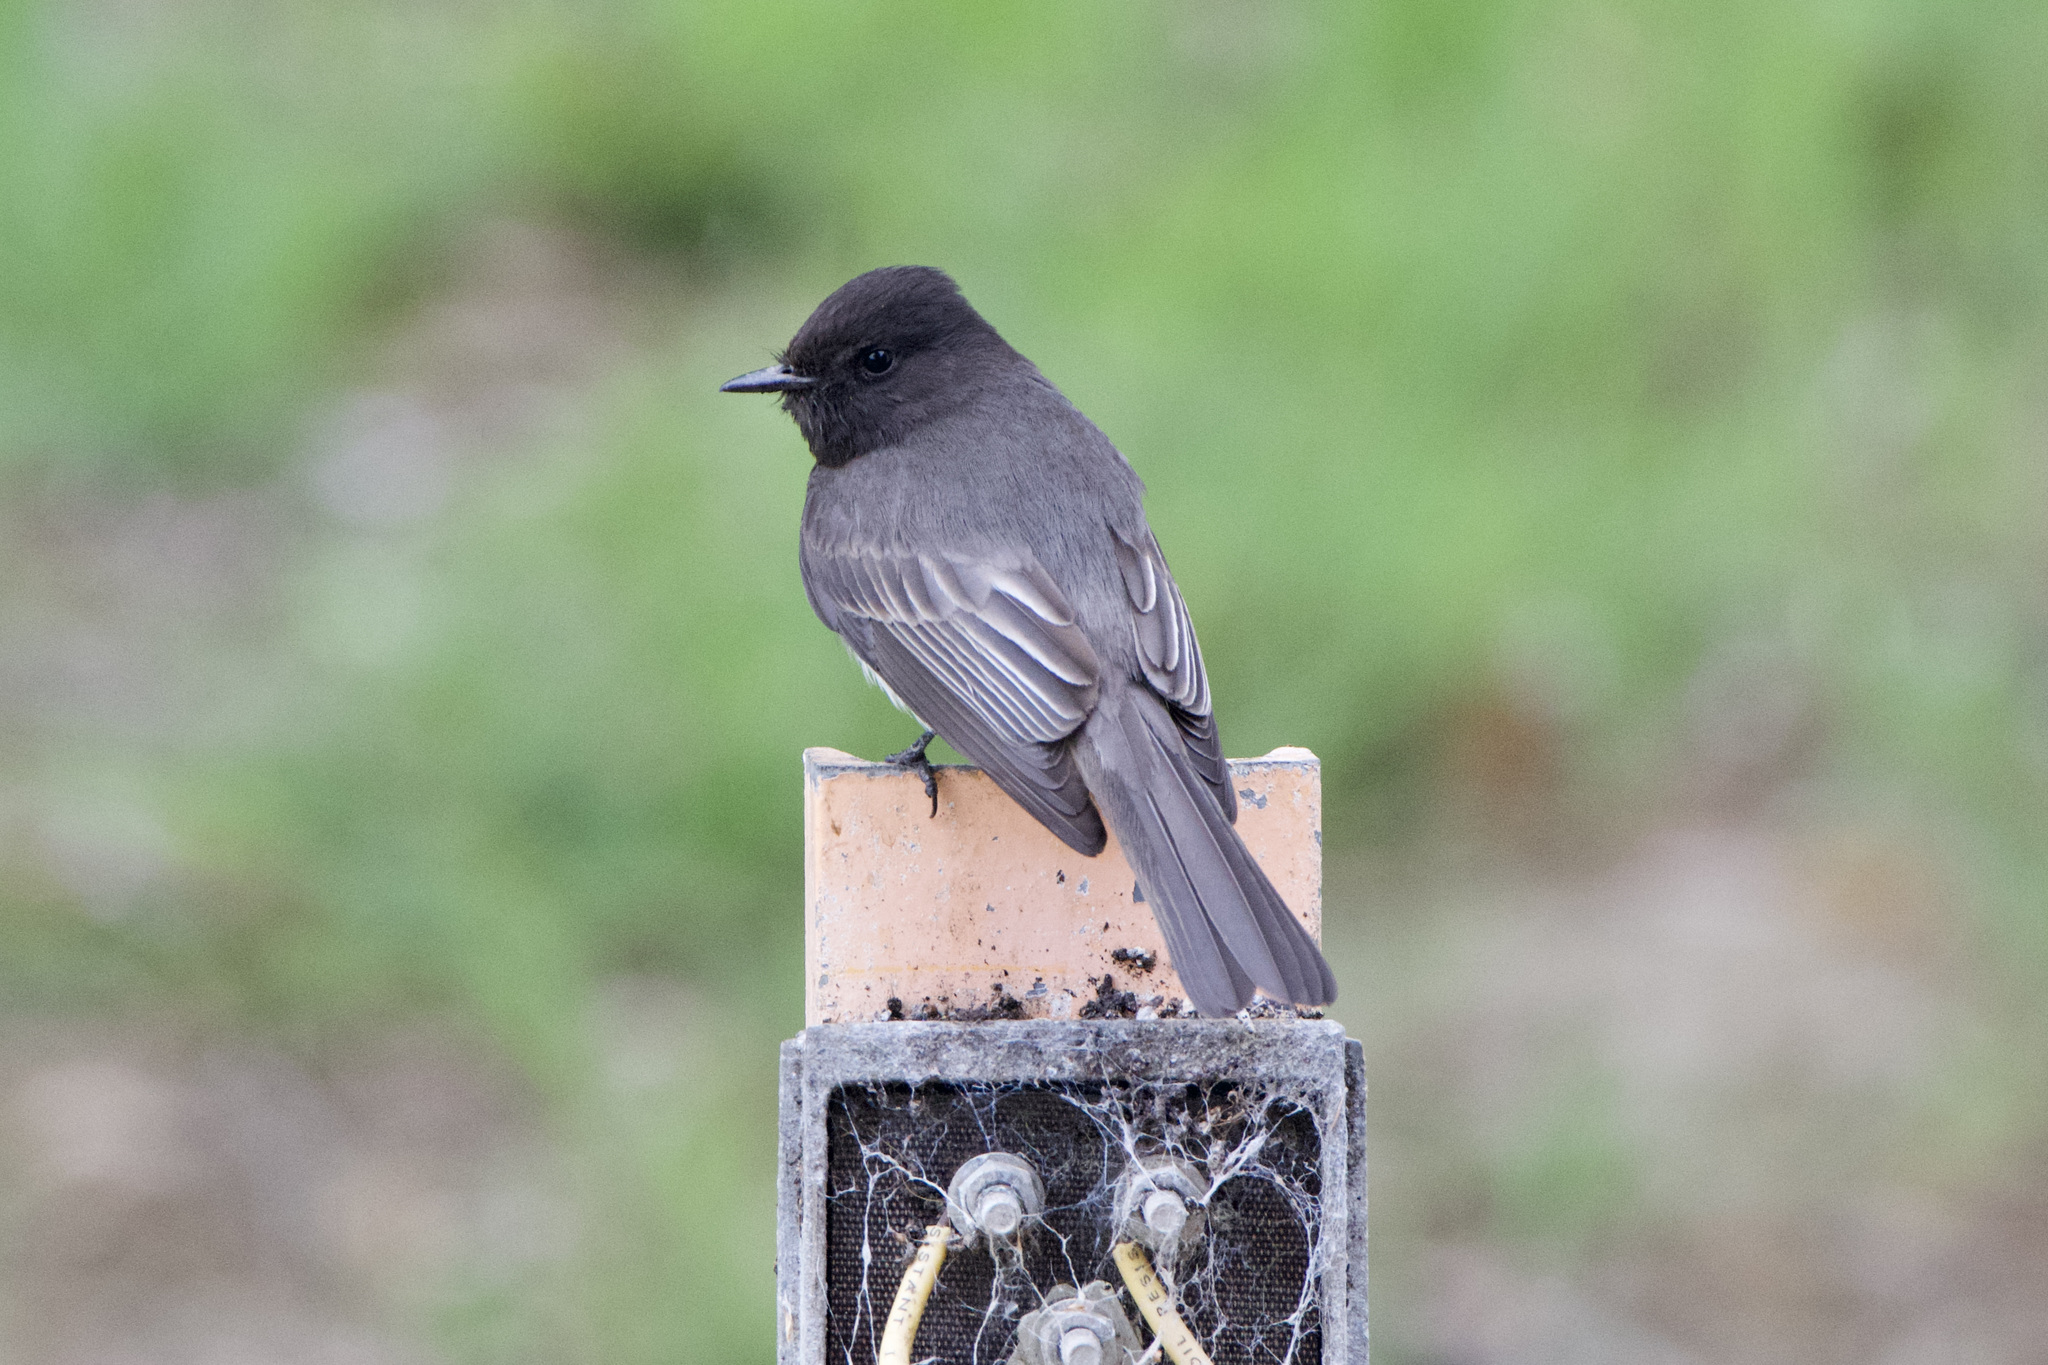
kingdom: Animalia
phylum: Chordata
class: Aves
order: Passeriformes
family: Tyrannidae
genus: Sayornis
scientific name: Sayornis nigricans
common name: Black phoebe
